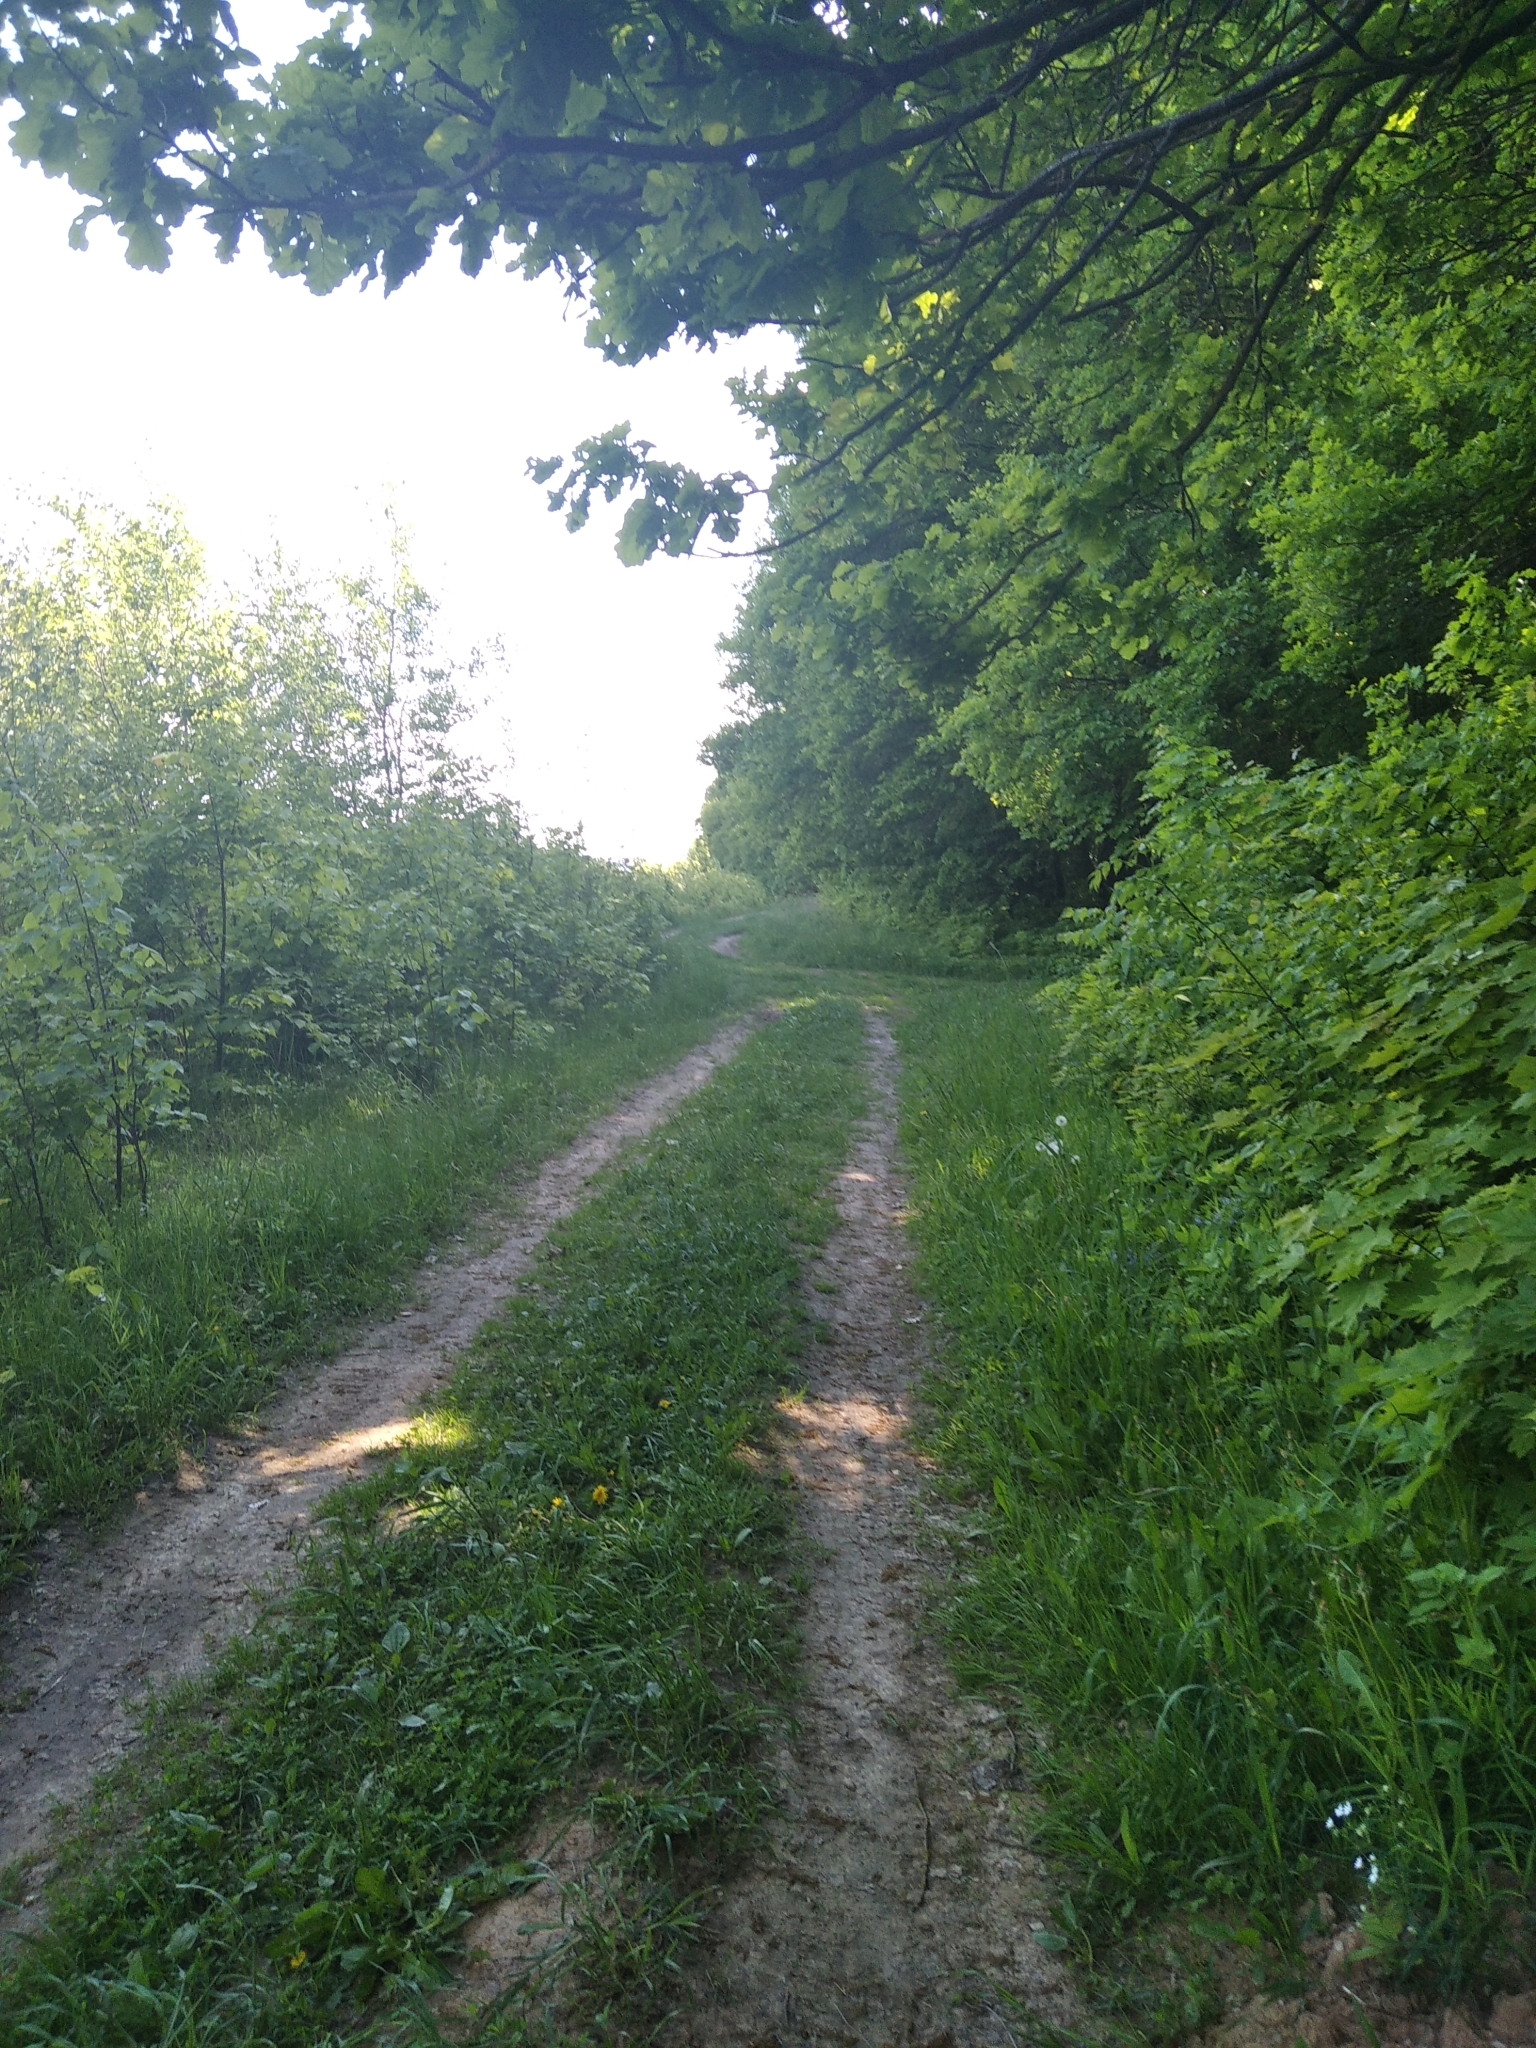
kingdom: Plantae
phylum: Tracheophyta
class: Liliopsida
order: Asparagales
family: Iridaceae
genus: Iris
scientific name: Iris hybrida
